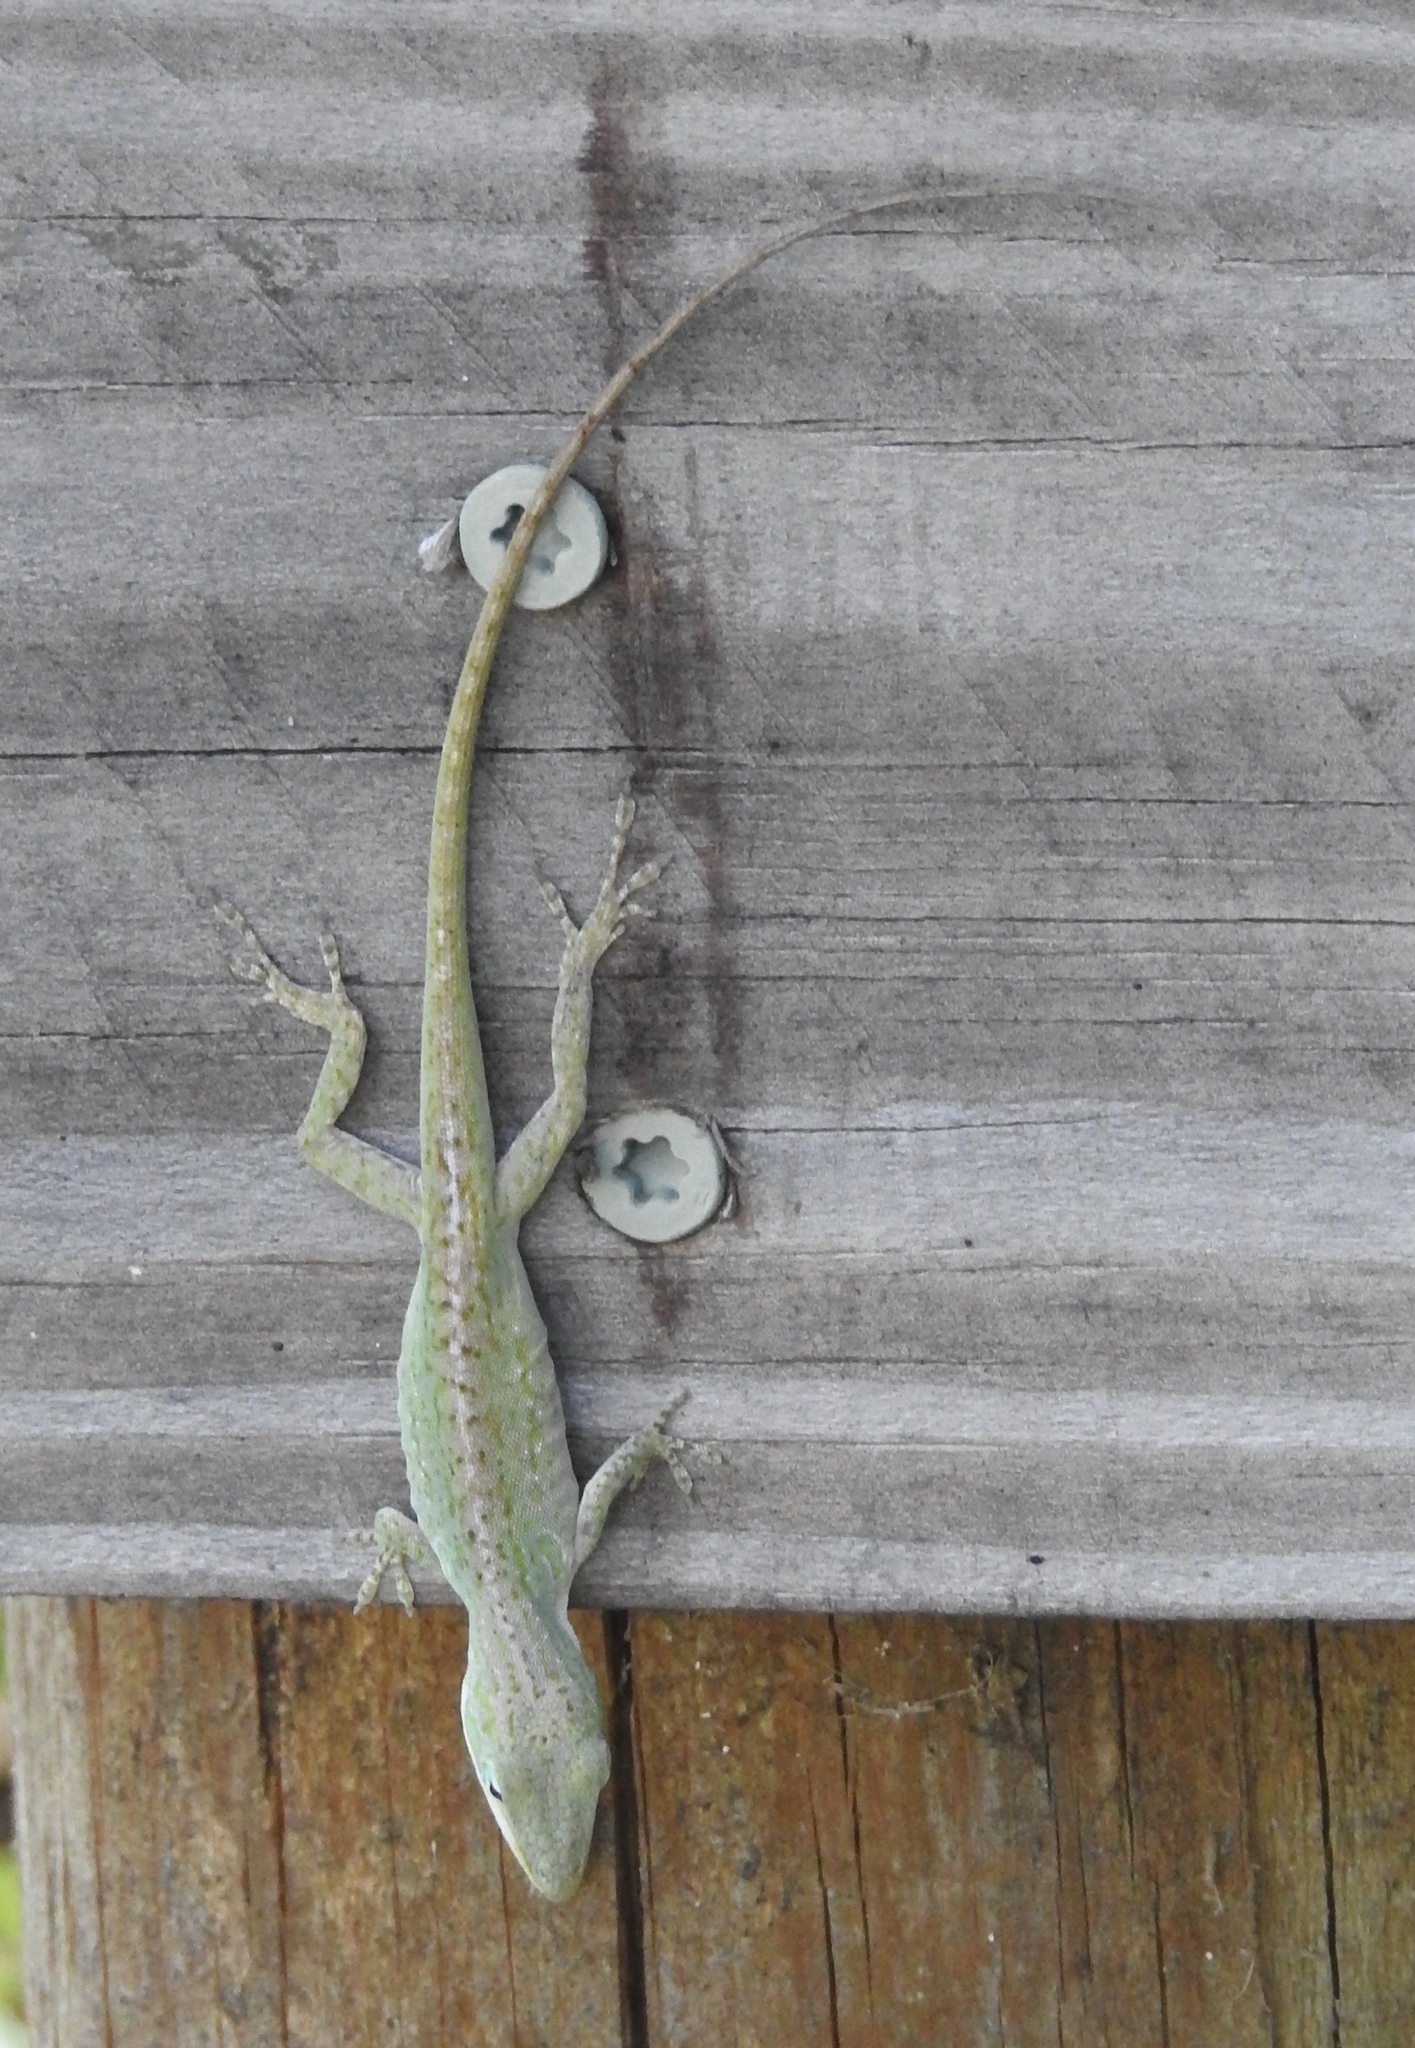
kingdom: Animalia
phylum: Chordata
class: Squamata
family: Dactyloidae
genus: Anolis
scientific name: Anolis carolinensis
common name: Green anole
